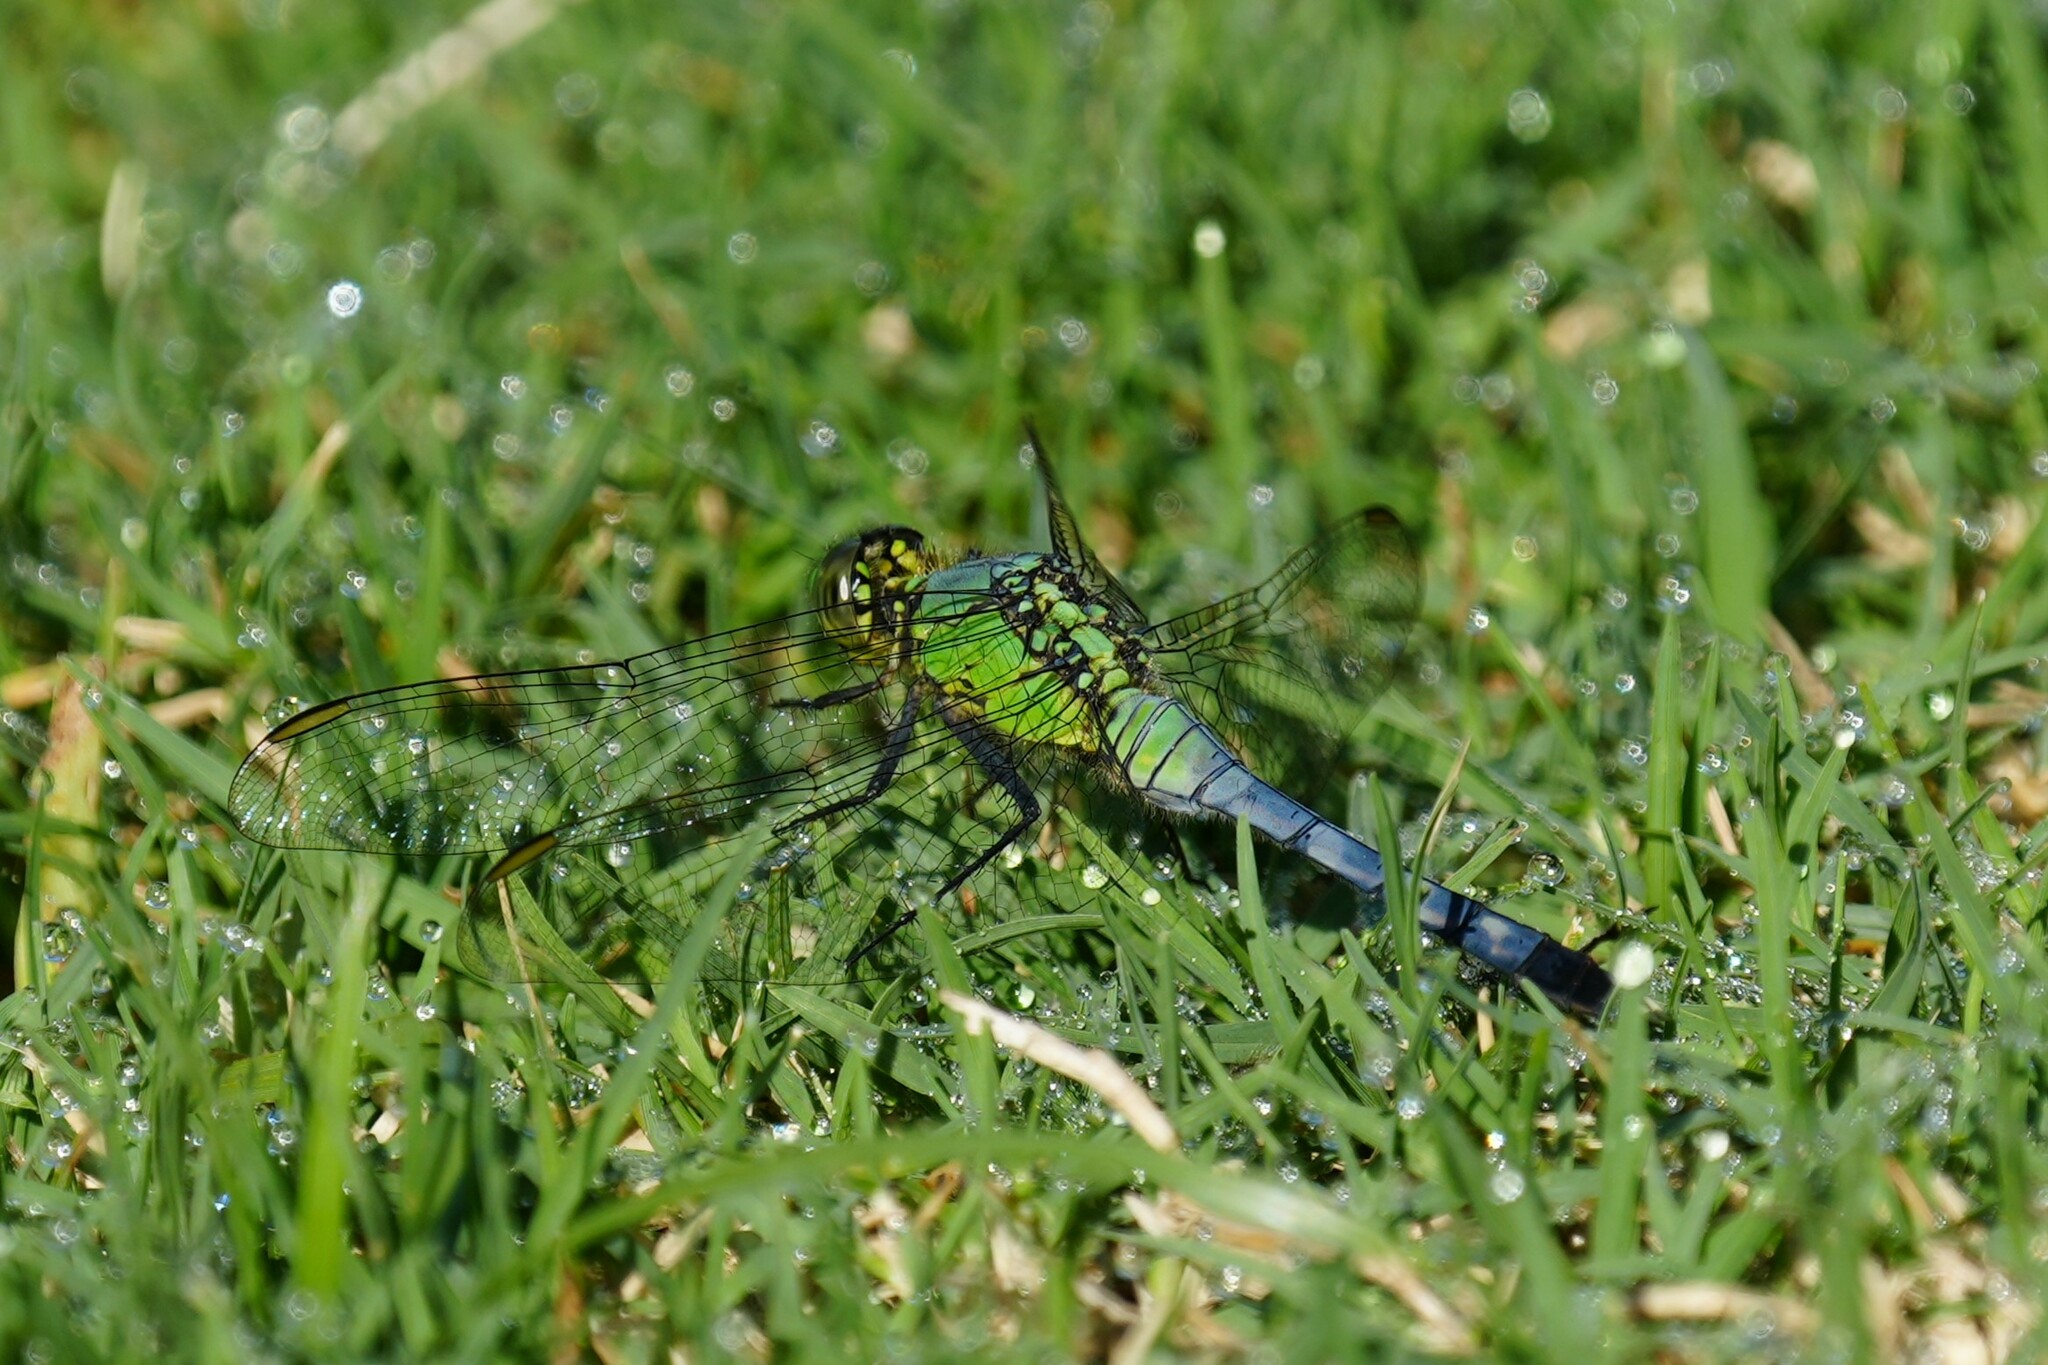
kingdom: Animalia
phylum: Arthropoda
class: Insecta
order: Odonata
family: Libellulidae
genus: Erythemis
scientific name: Erythemis simplicicollis
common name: Eastern pondhawk
